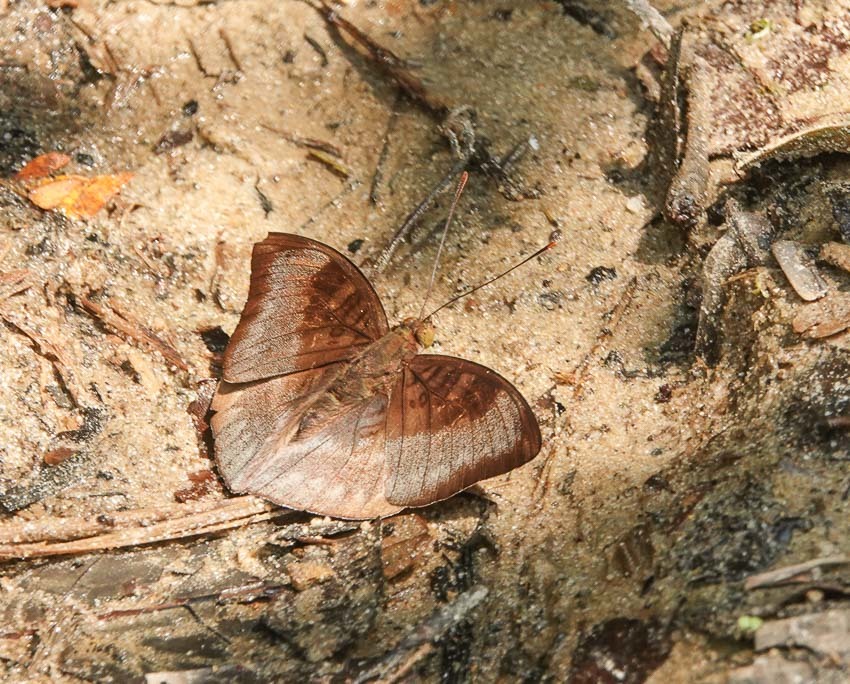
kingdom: Animalia
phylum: Arthropoda
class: Insecta
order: Lepidoptera
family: Nymphalidae
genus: Euthalia
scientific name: Euthalia monina
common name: Powdered baron
